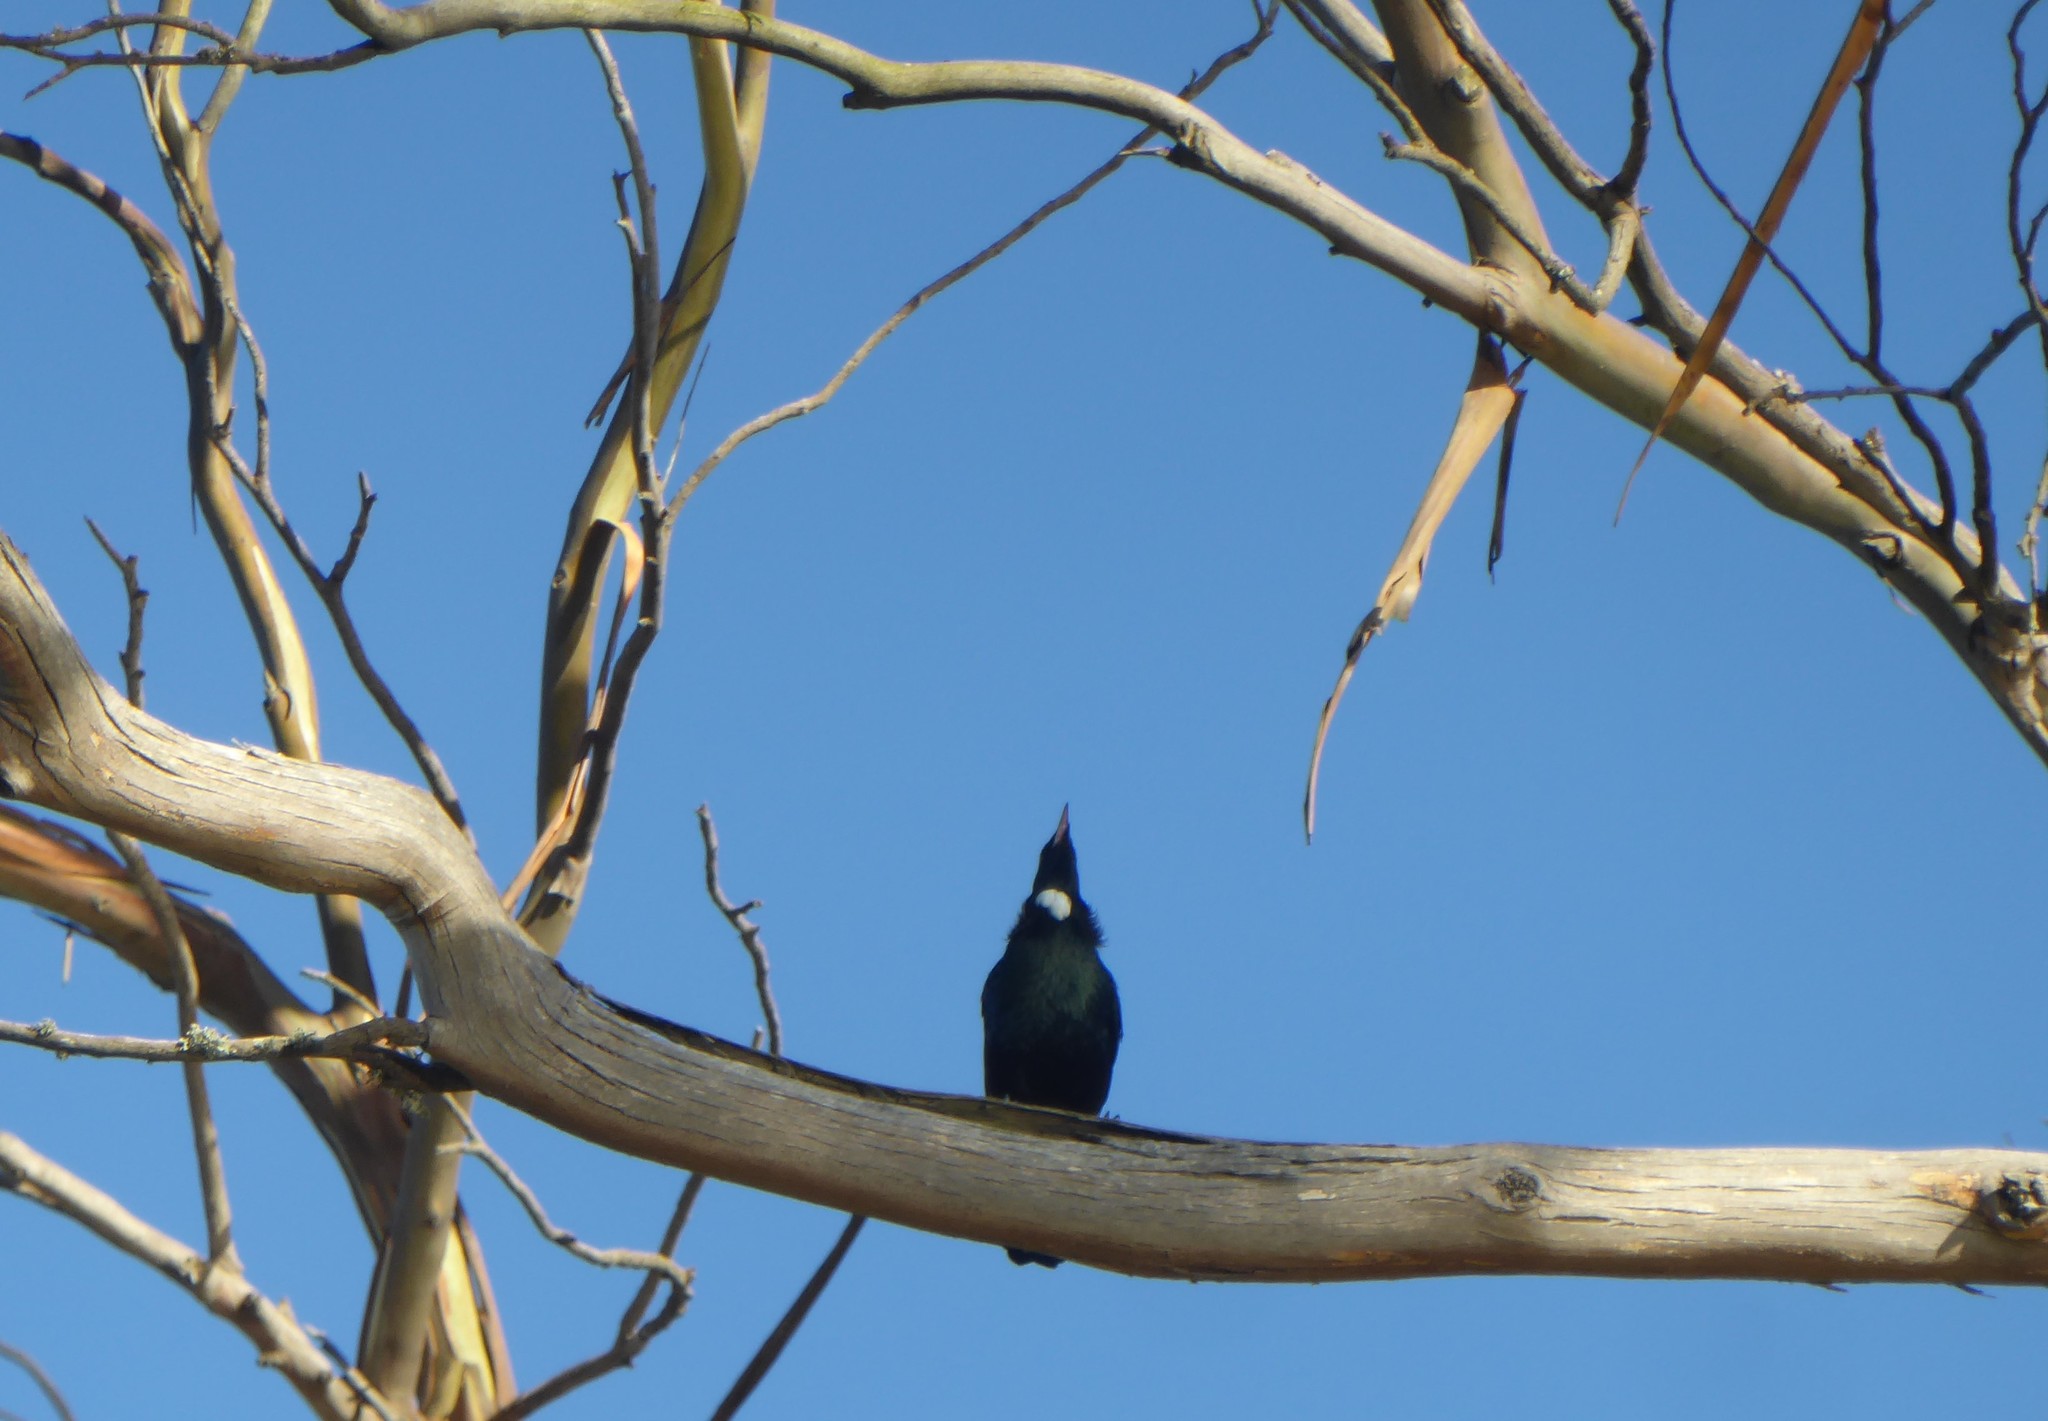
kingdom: Animalia
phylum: Chordata
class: Aves
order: Passeriformes
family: Meliphagidae
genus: Prosthemadera
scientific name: Prosthemadera novaeseelandiae
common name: Tui
